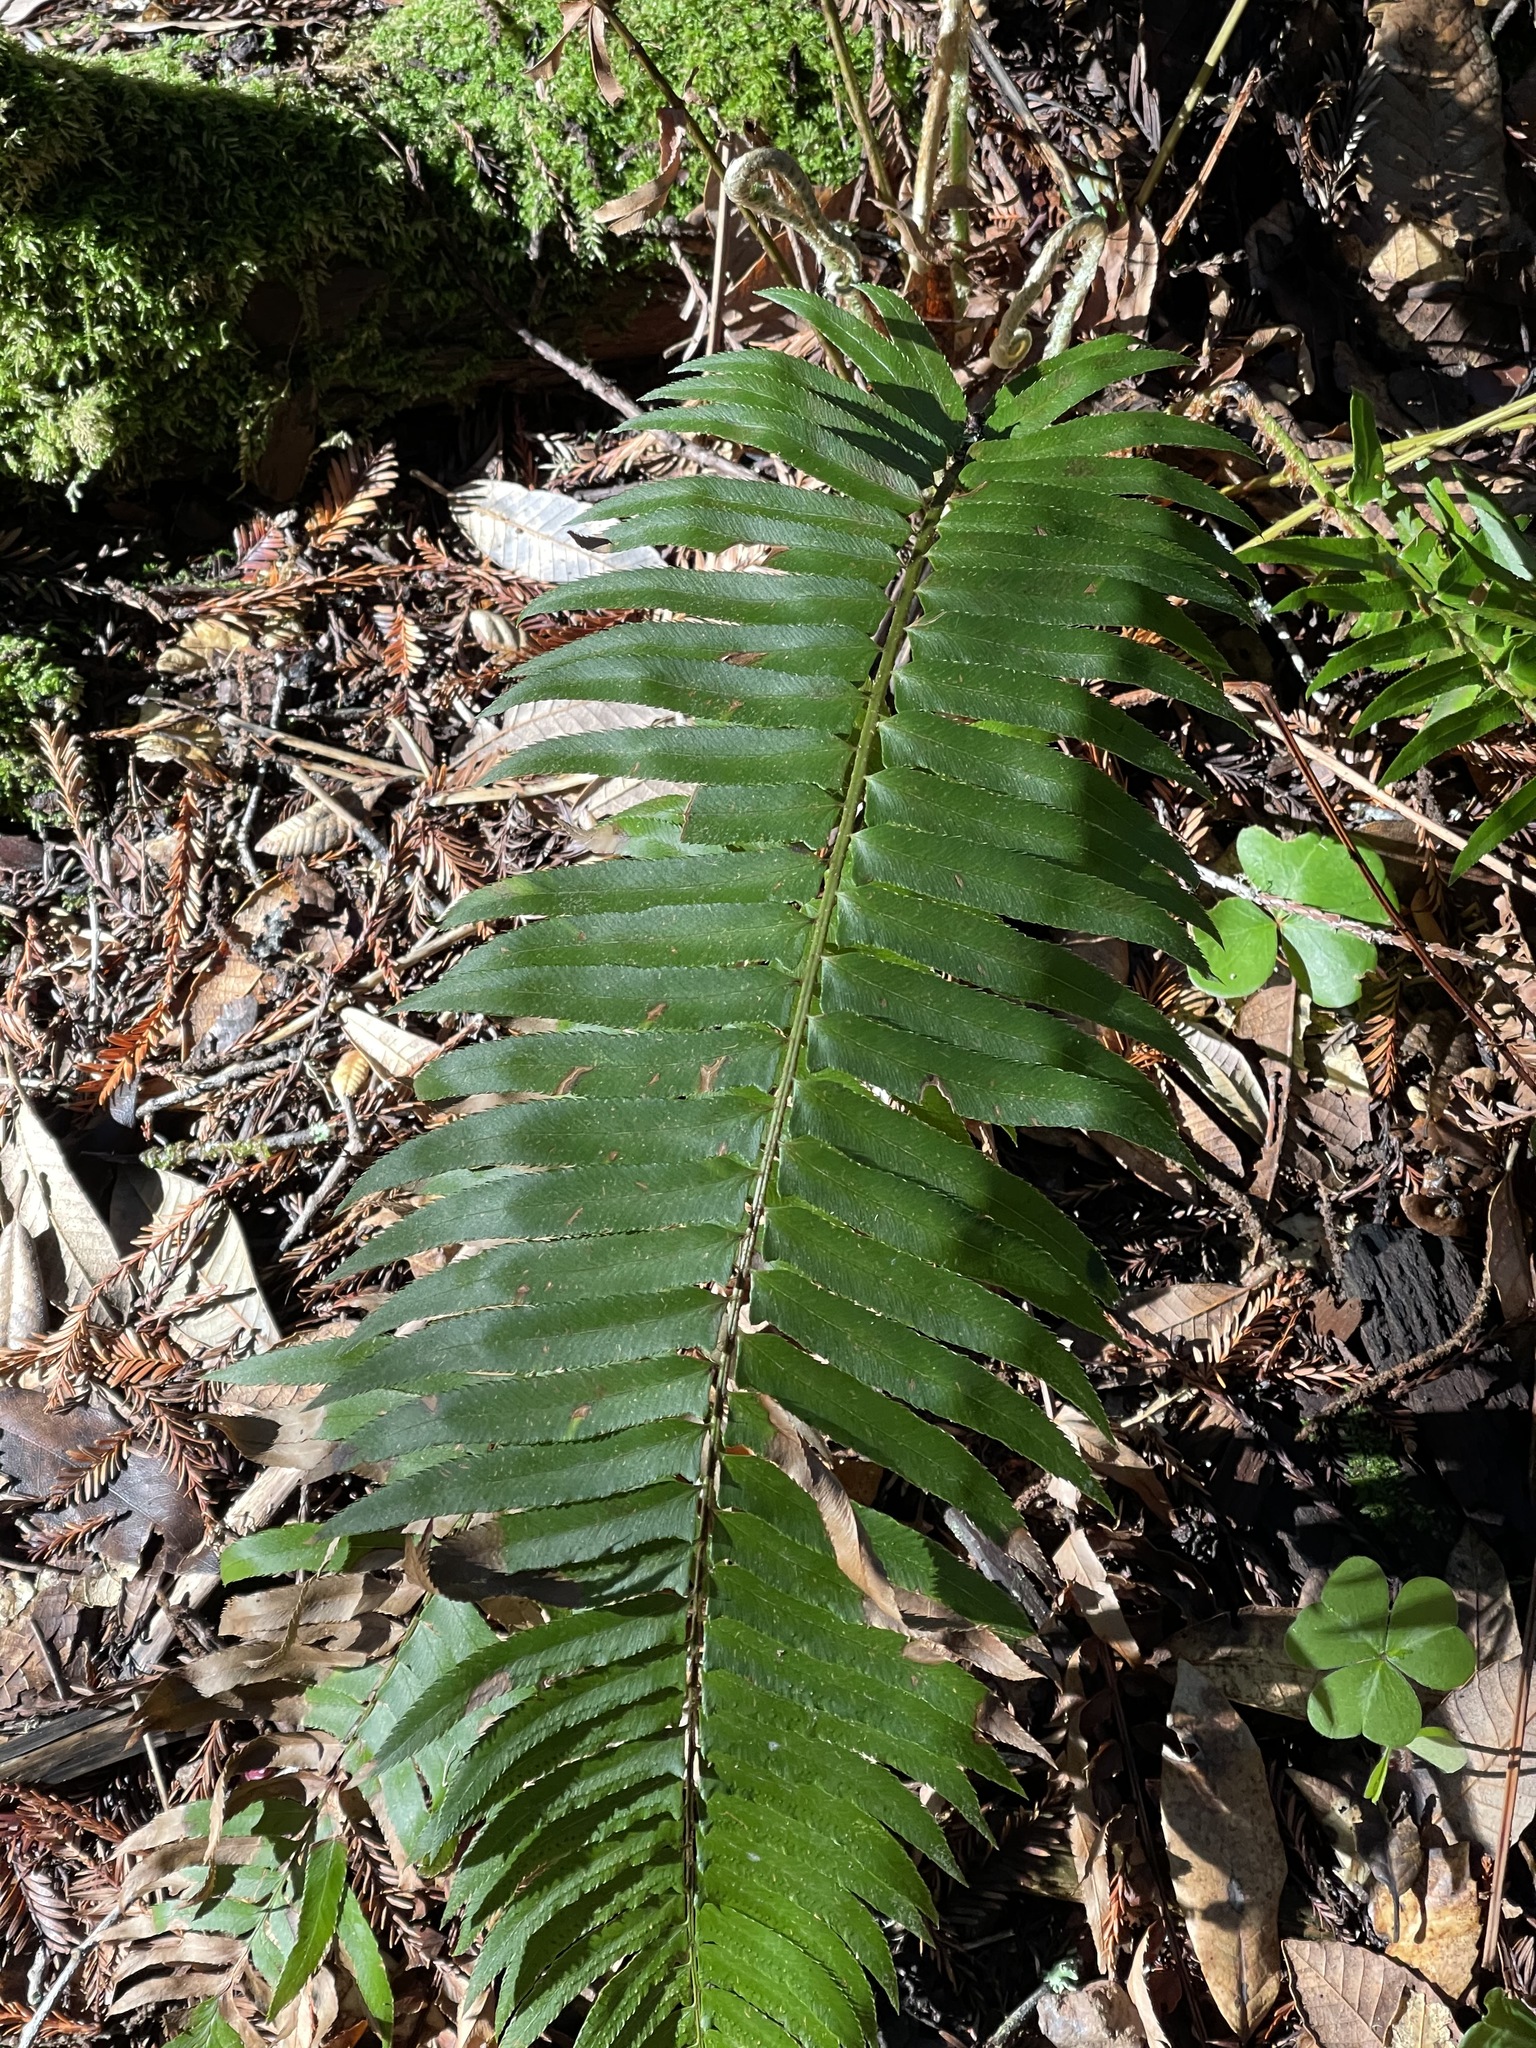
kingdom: Plantae
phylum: Tracheophyta
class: Polypodiopsida
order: Polypodiales
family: Dryopteridaceae
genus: Polystichum
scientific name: Polystichum munitum
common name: Western sword-fern
